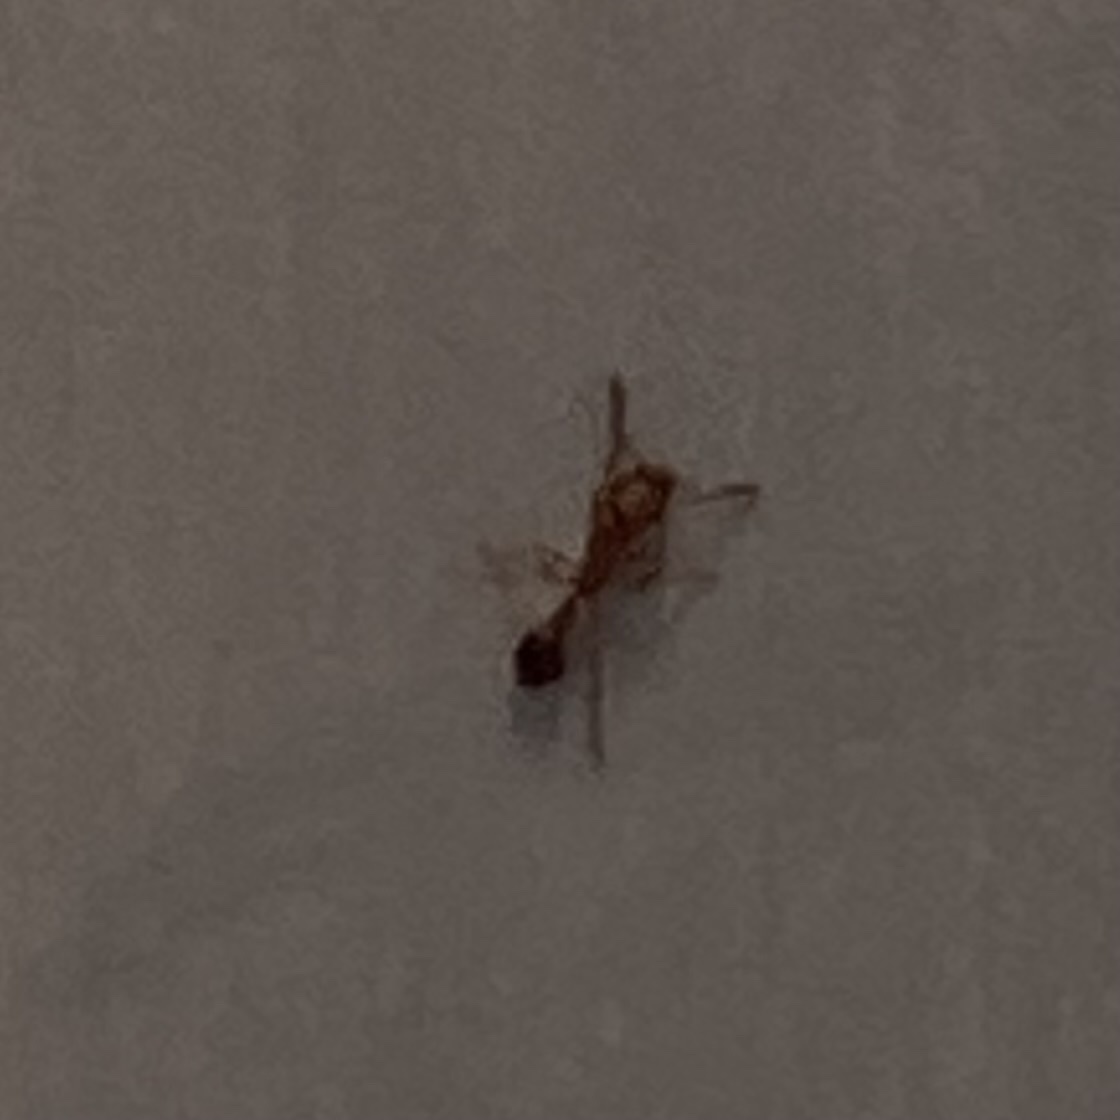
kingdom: Animalia
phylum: Arthropoda
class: Insecta
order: Hymenoptera
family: Formicidae
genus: Tetramorium
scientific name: Tetramorium bicarinatum
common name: Guinea ant
